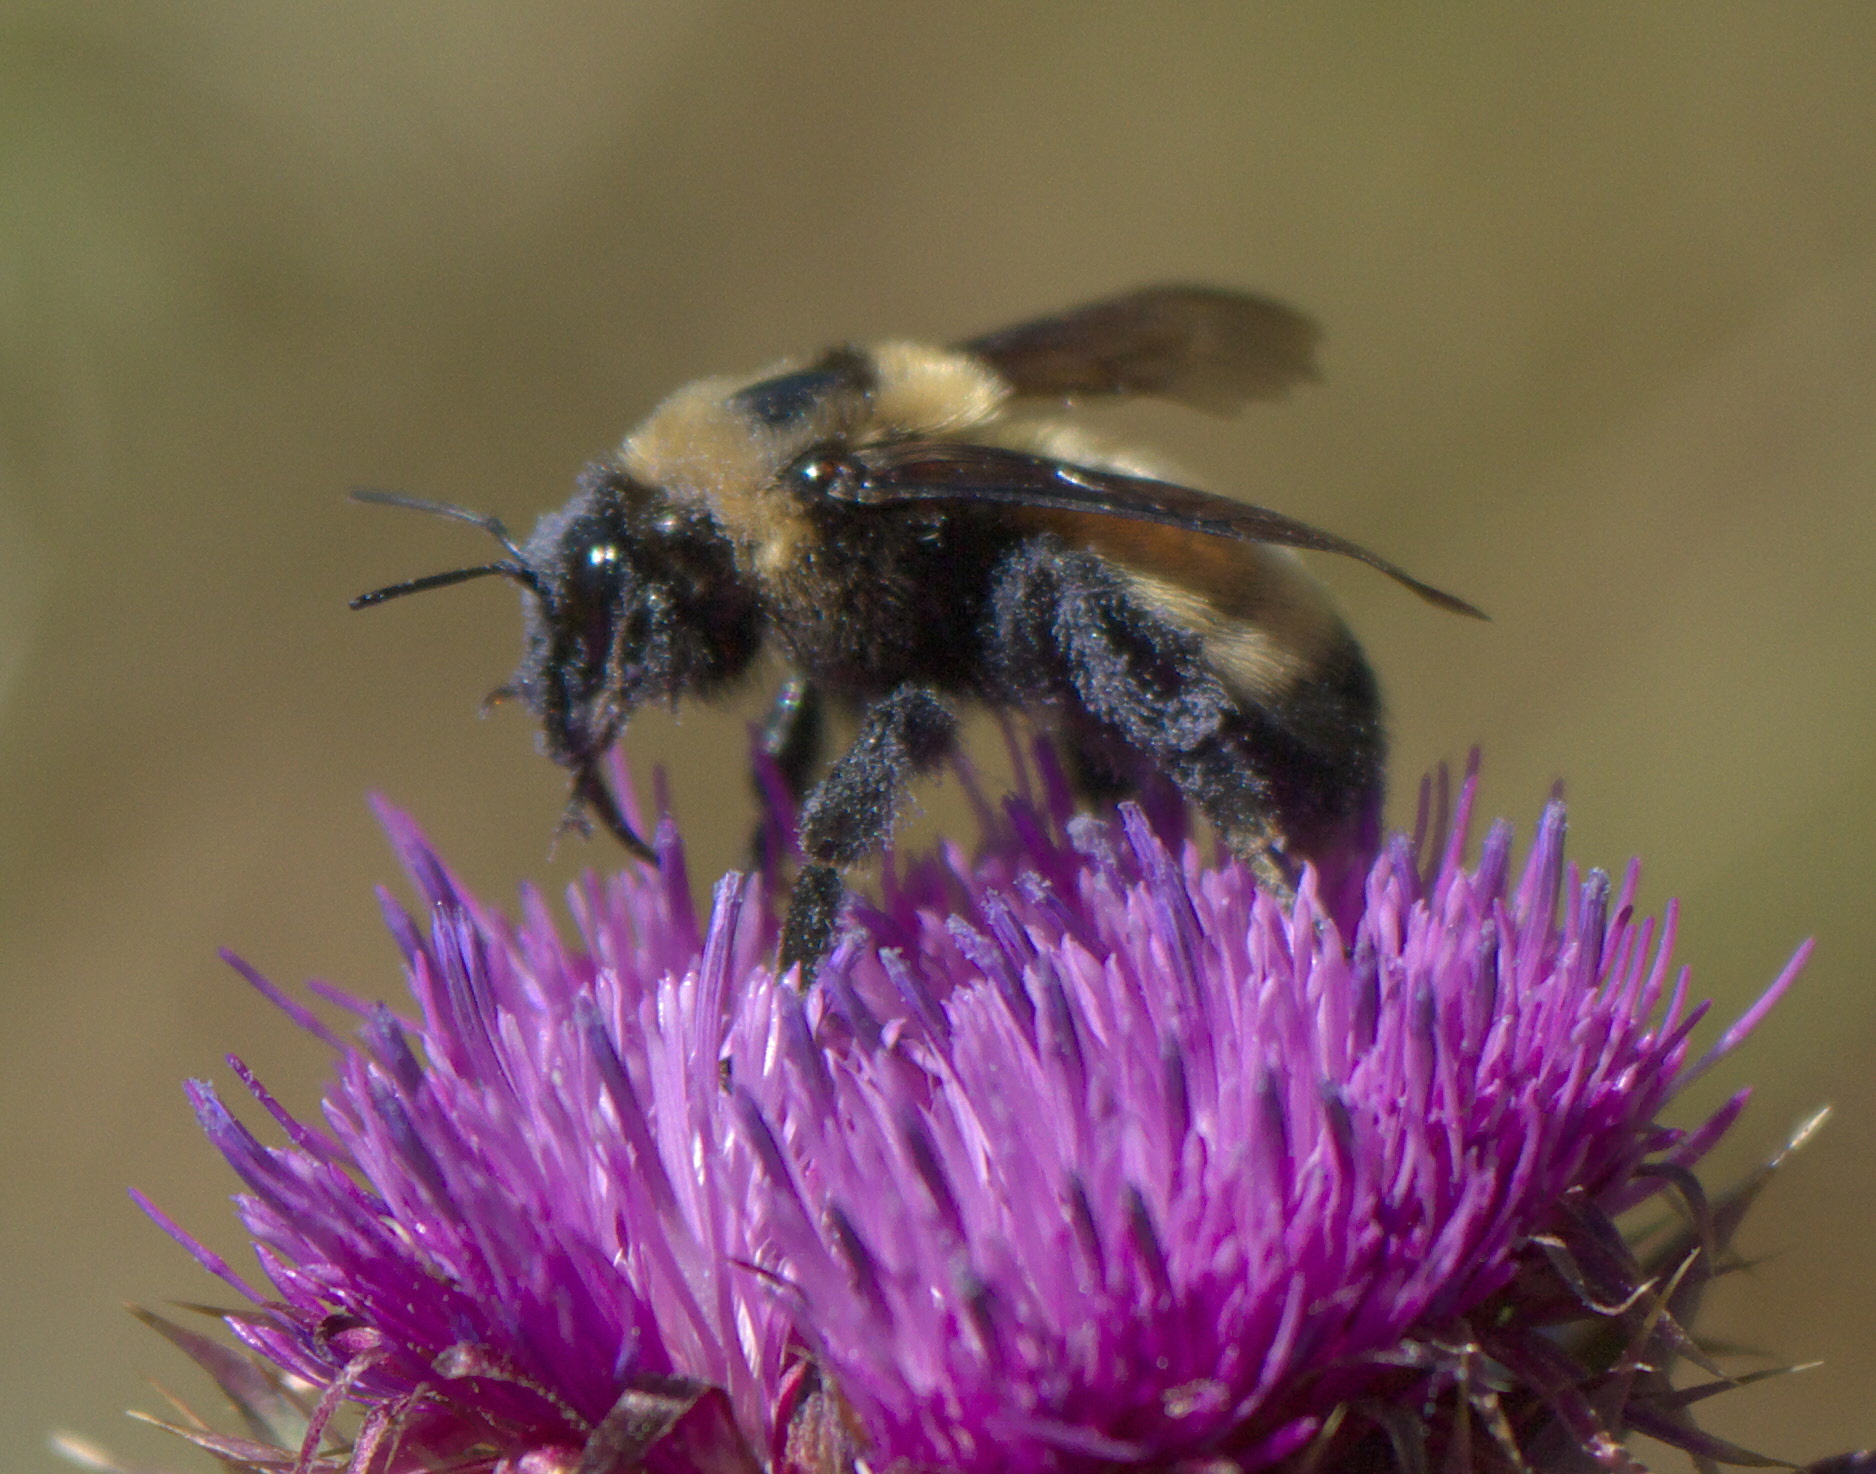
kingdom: Animalia
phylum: Arthropoda
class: Insecta
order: Hymenoptera
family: Apidae
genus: Bombus
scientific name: Bombus nevadensis
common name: Nevada bumble bee
